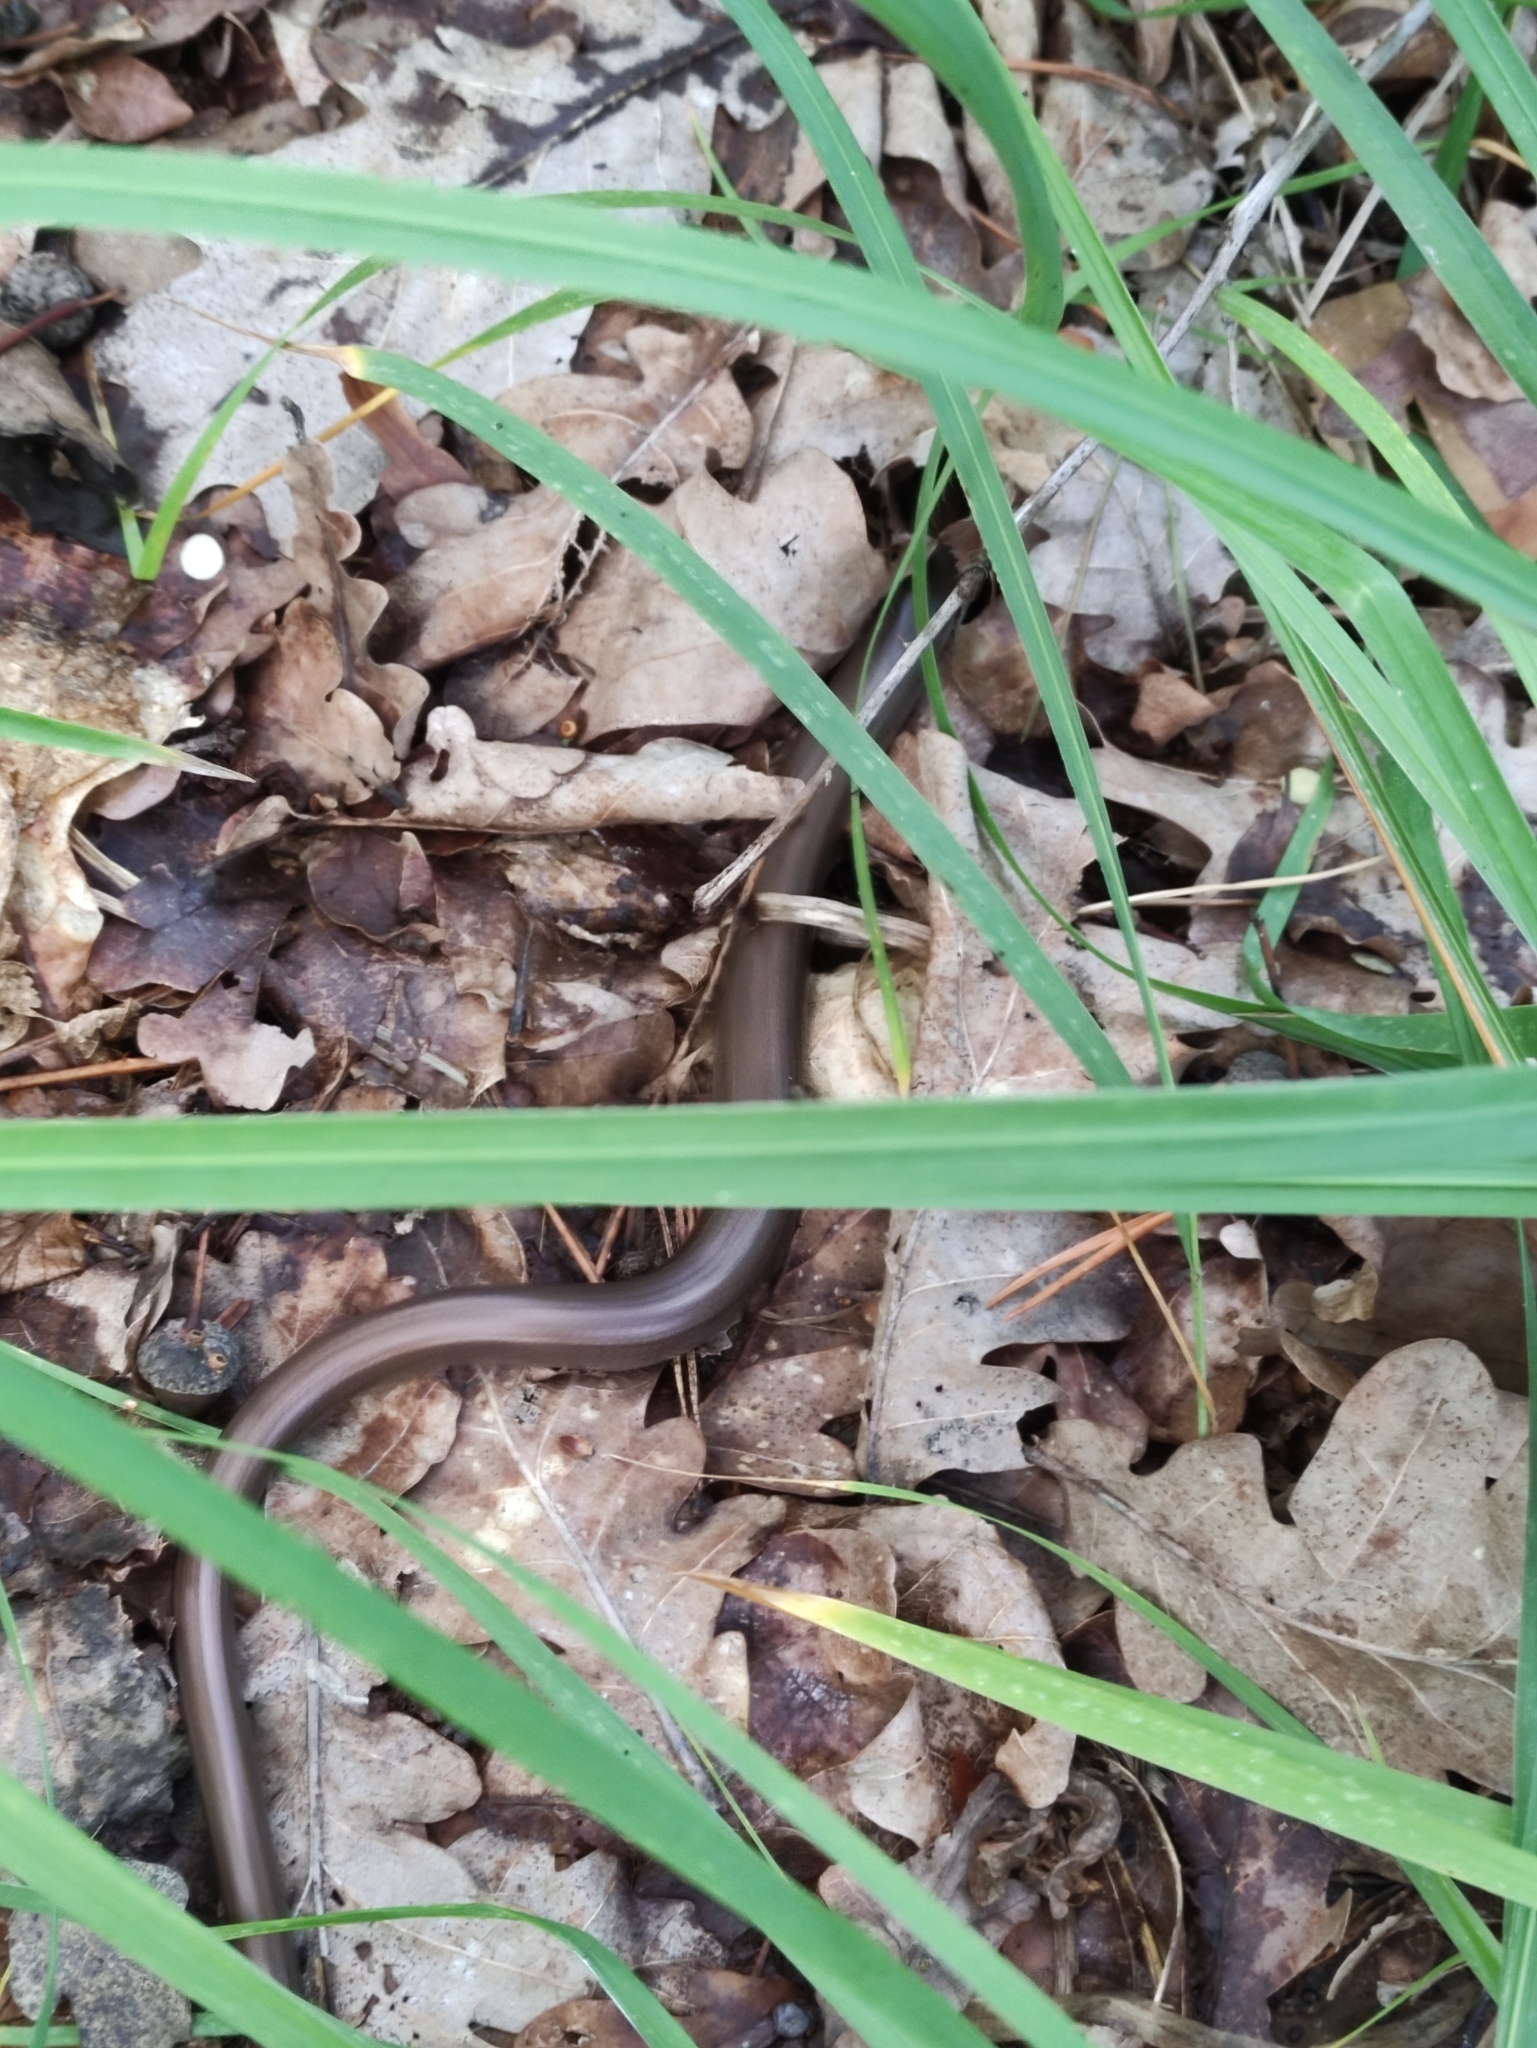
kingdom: Animalia
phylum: Chordata
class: Squamata
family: Anguidae
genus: Anguis
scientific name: Anguis colchica
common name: Slow worm
